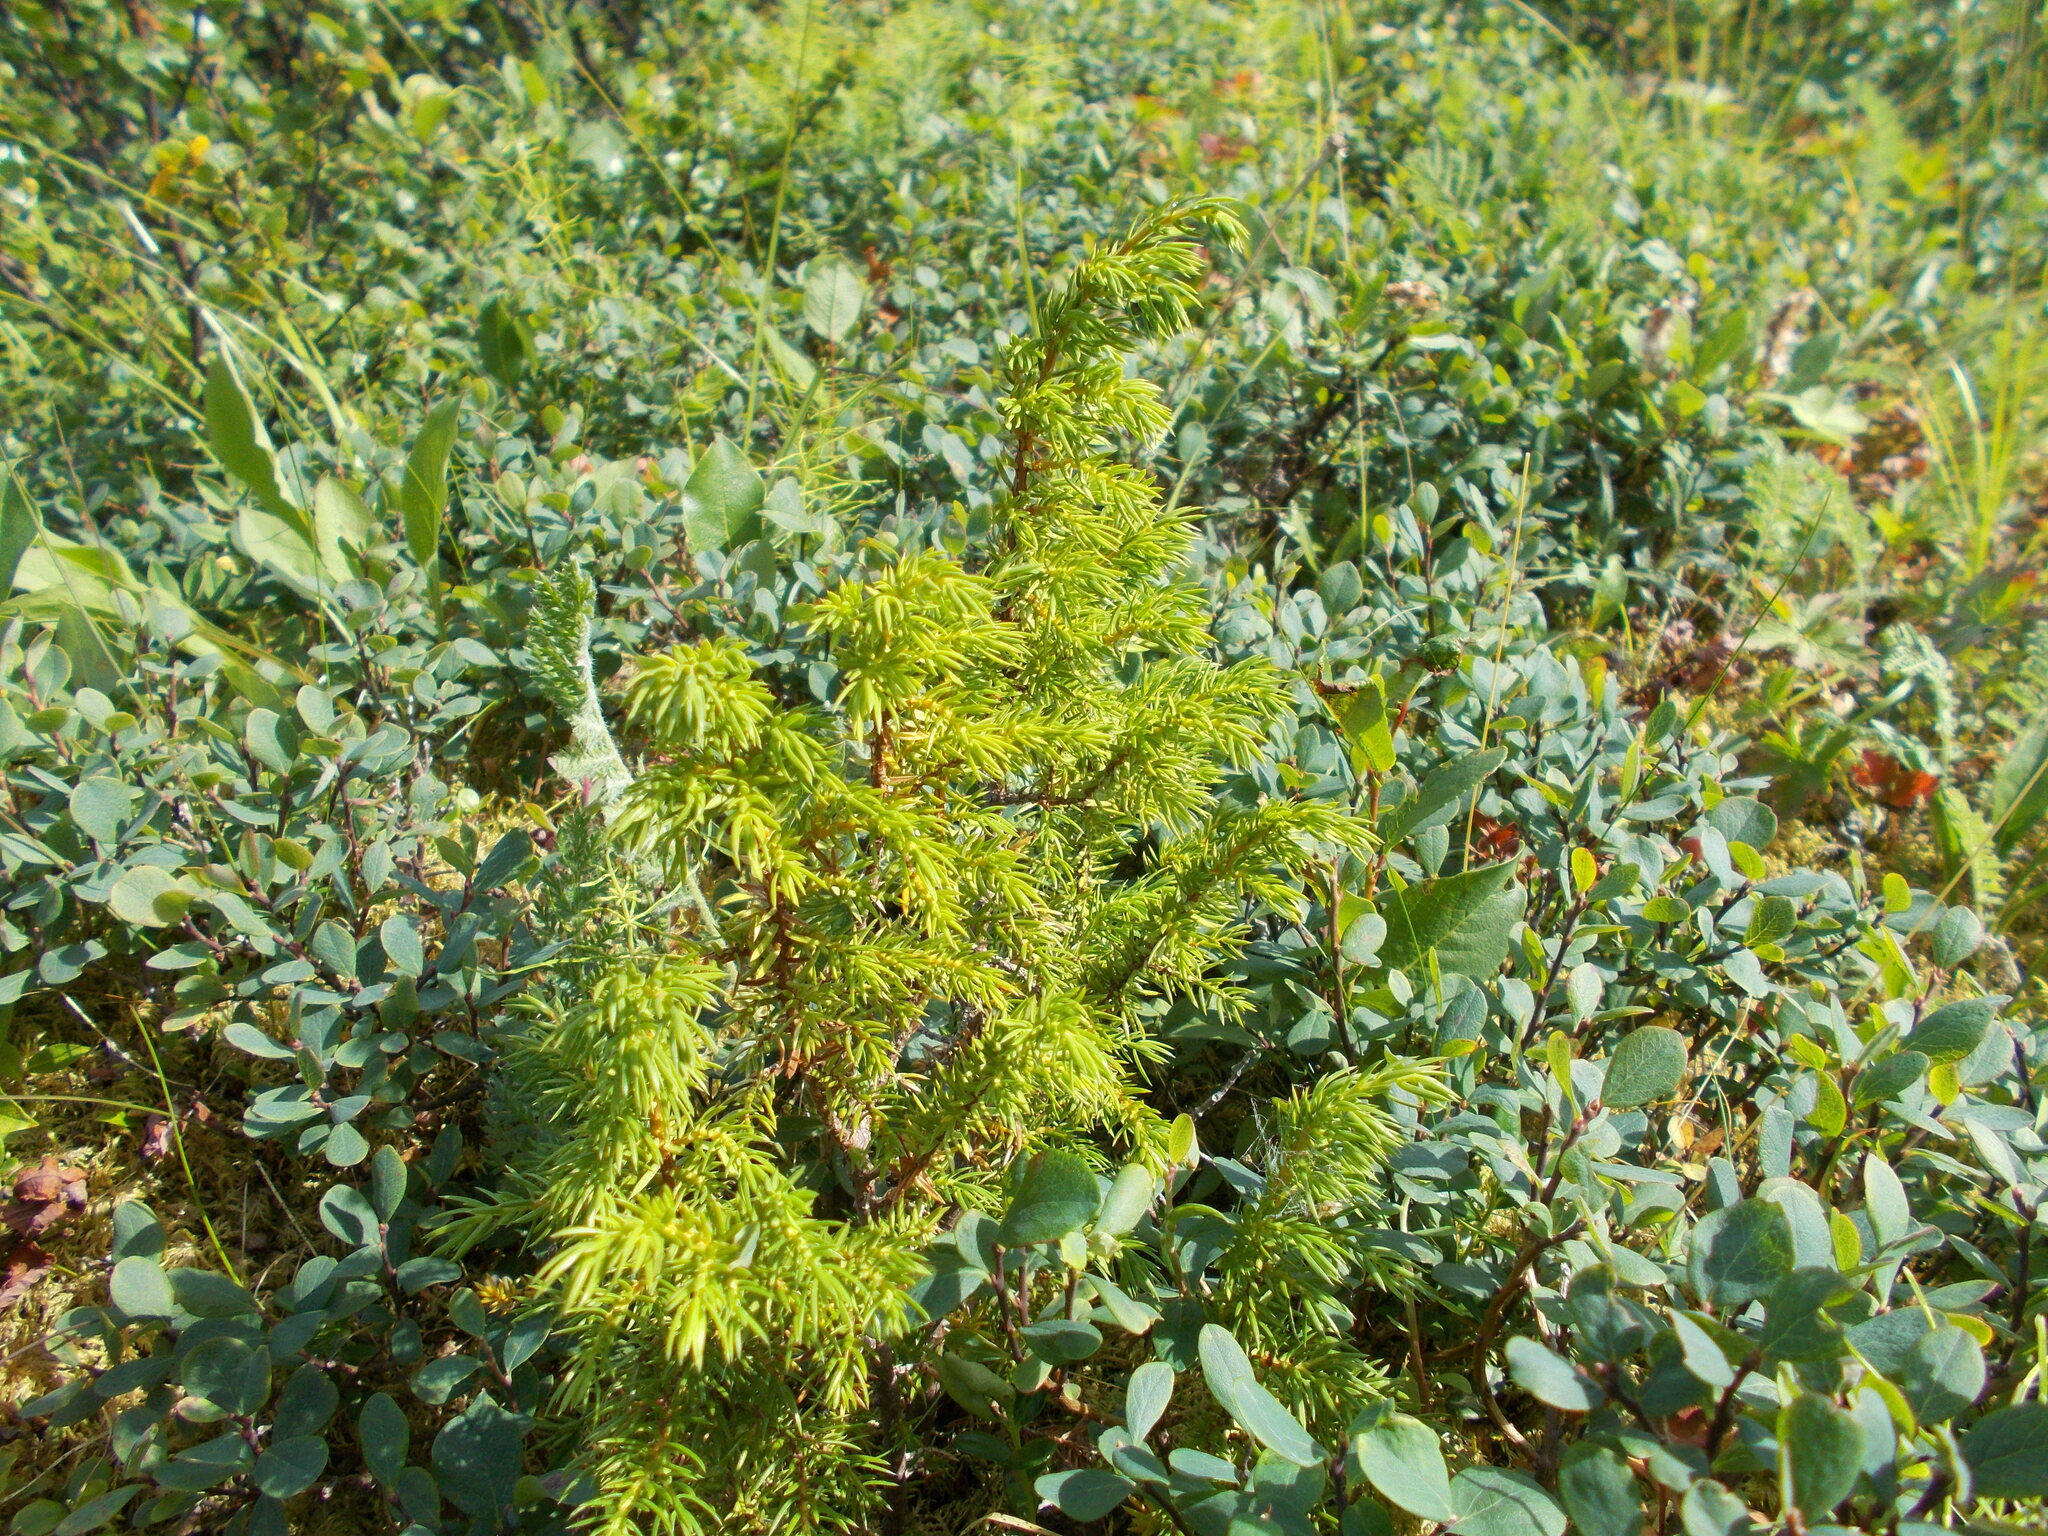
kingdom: Plantae
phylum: Tracheophyta
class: Pinopsida
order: Pinales
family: Cupressaceae
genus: Juniperus
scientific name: Juniperus communis
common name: Common juniper
